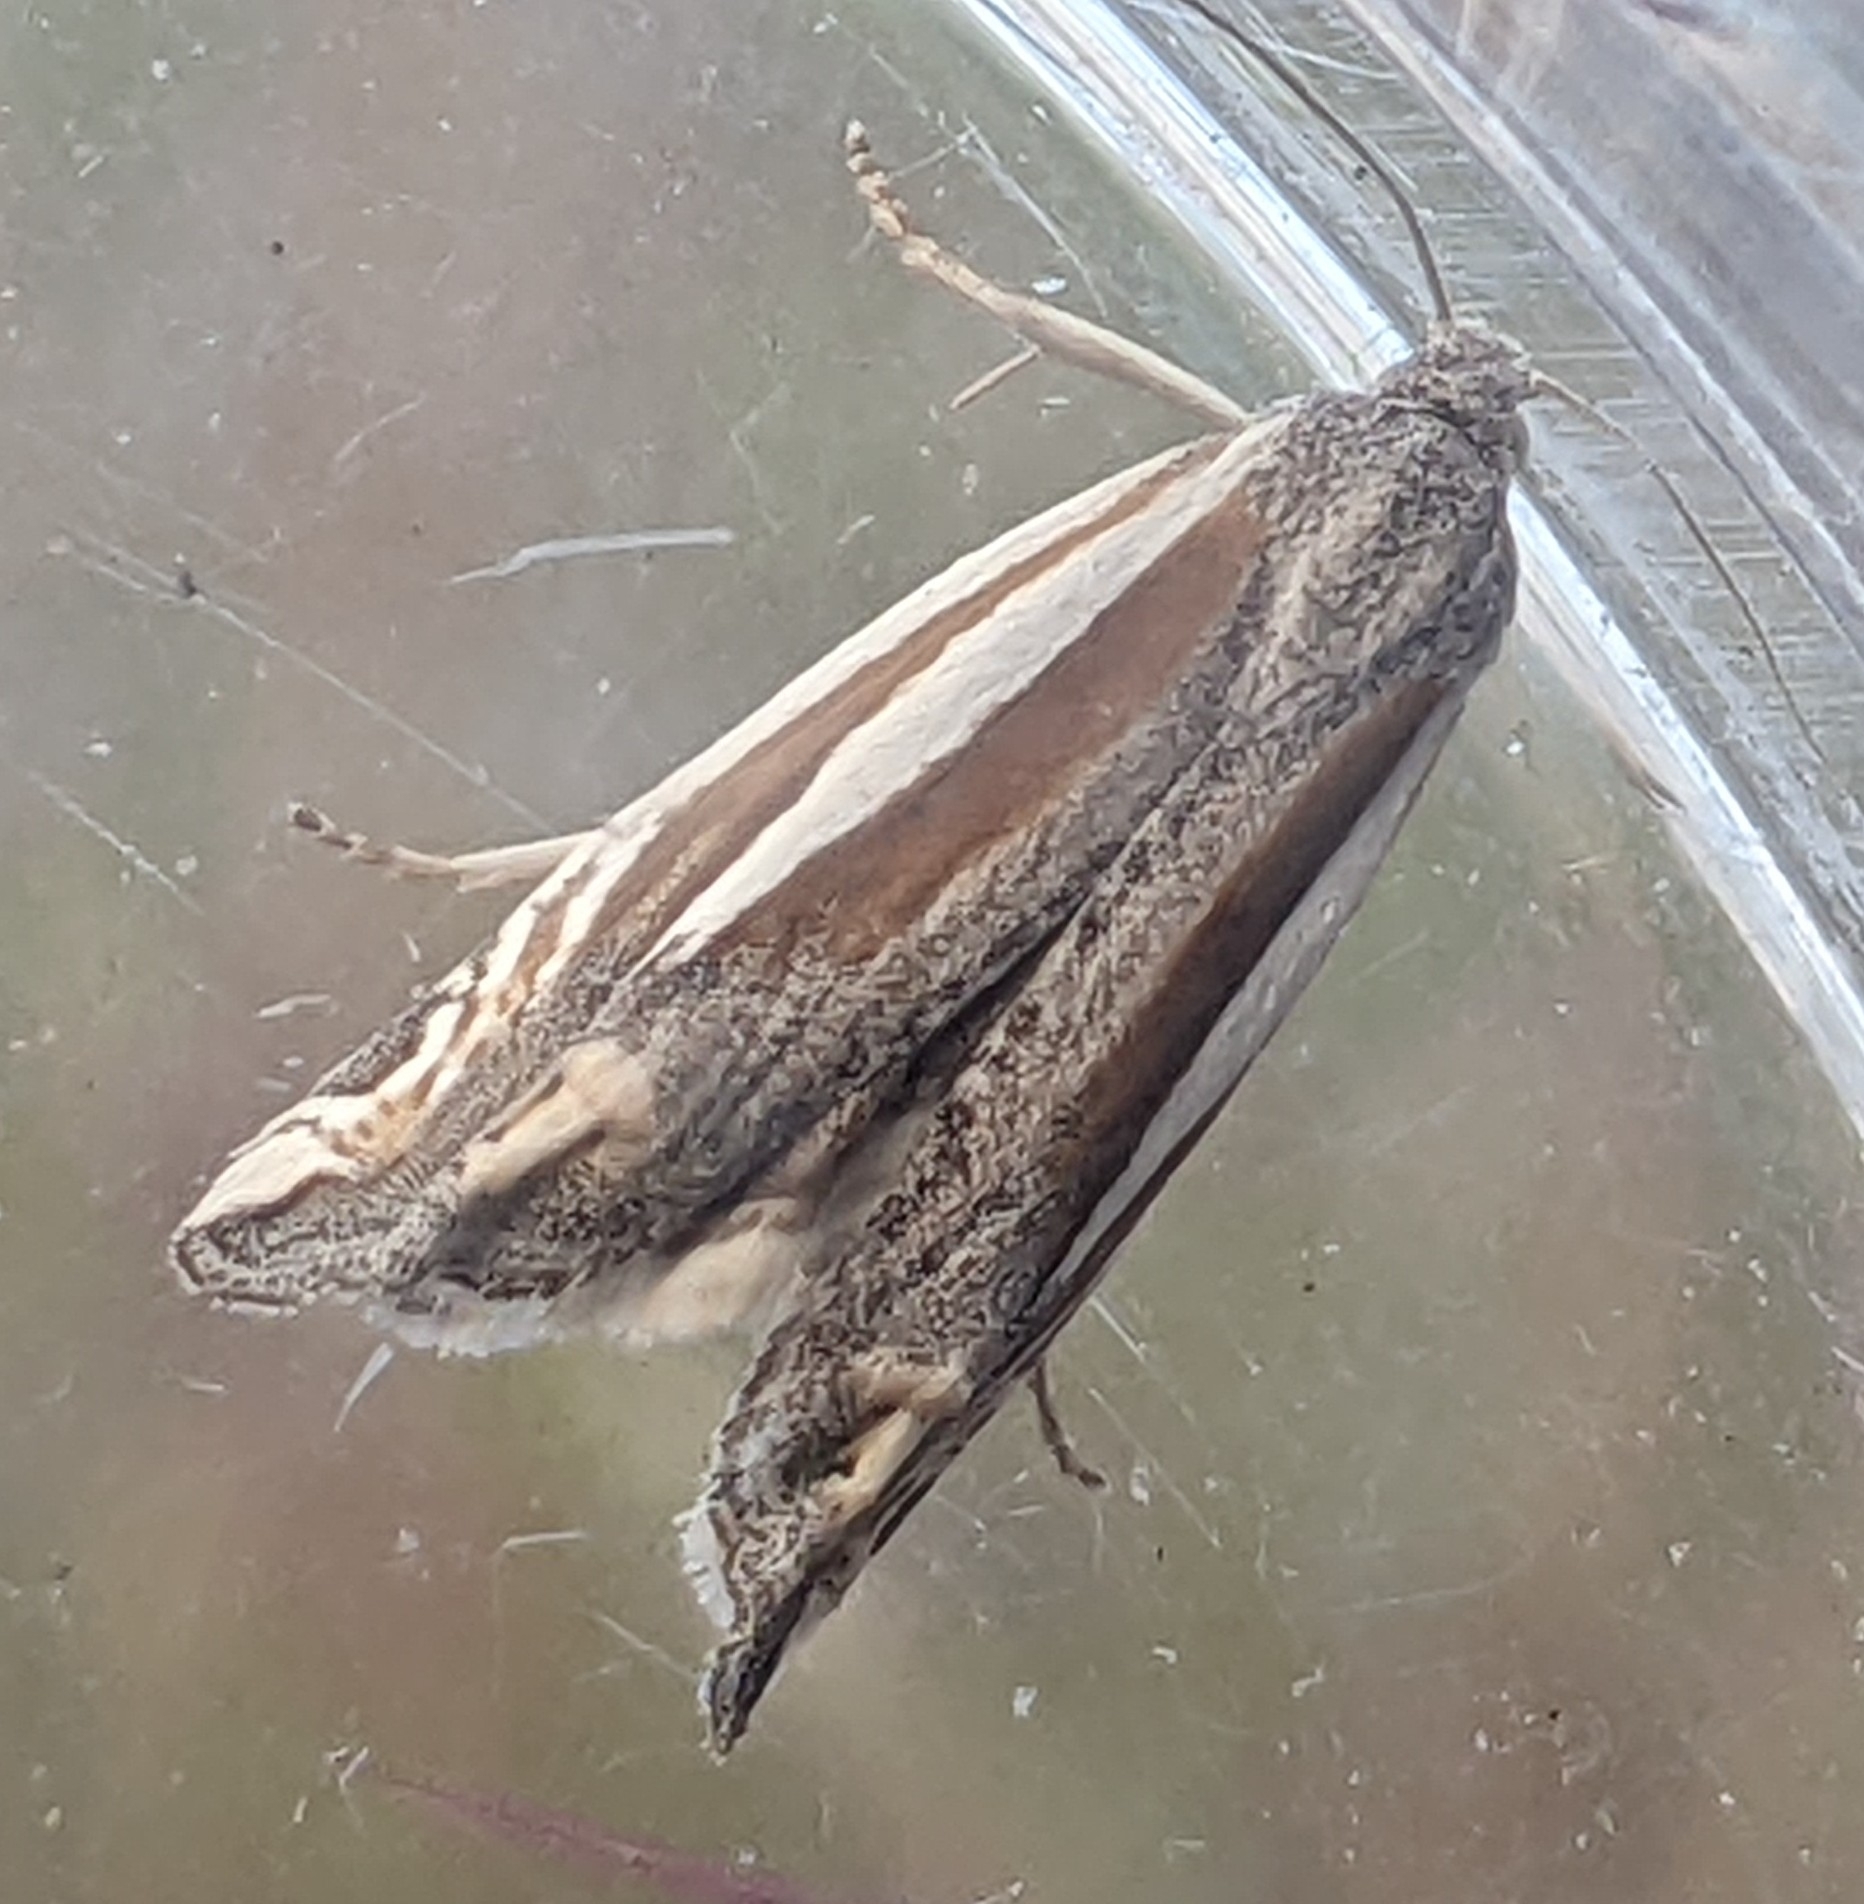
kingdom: Animalia
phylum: Arthropoda
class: Insecta
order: Lepidoptera
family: Tortricidae
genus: Eucosma
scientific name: Eucosma spiculana
